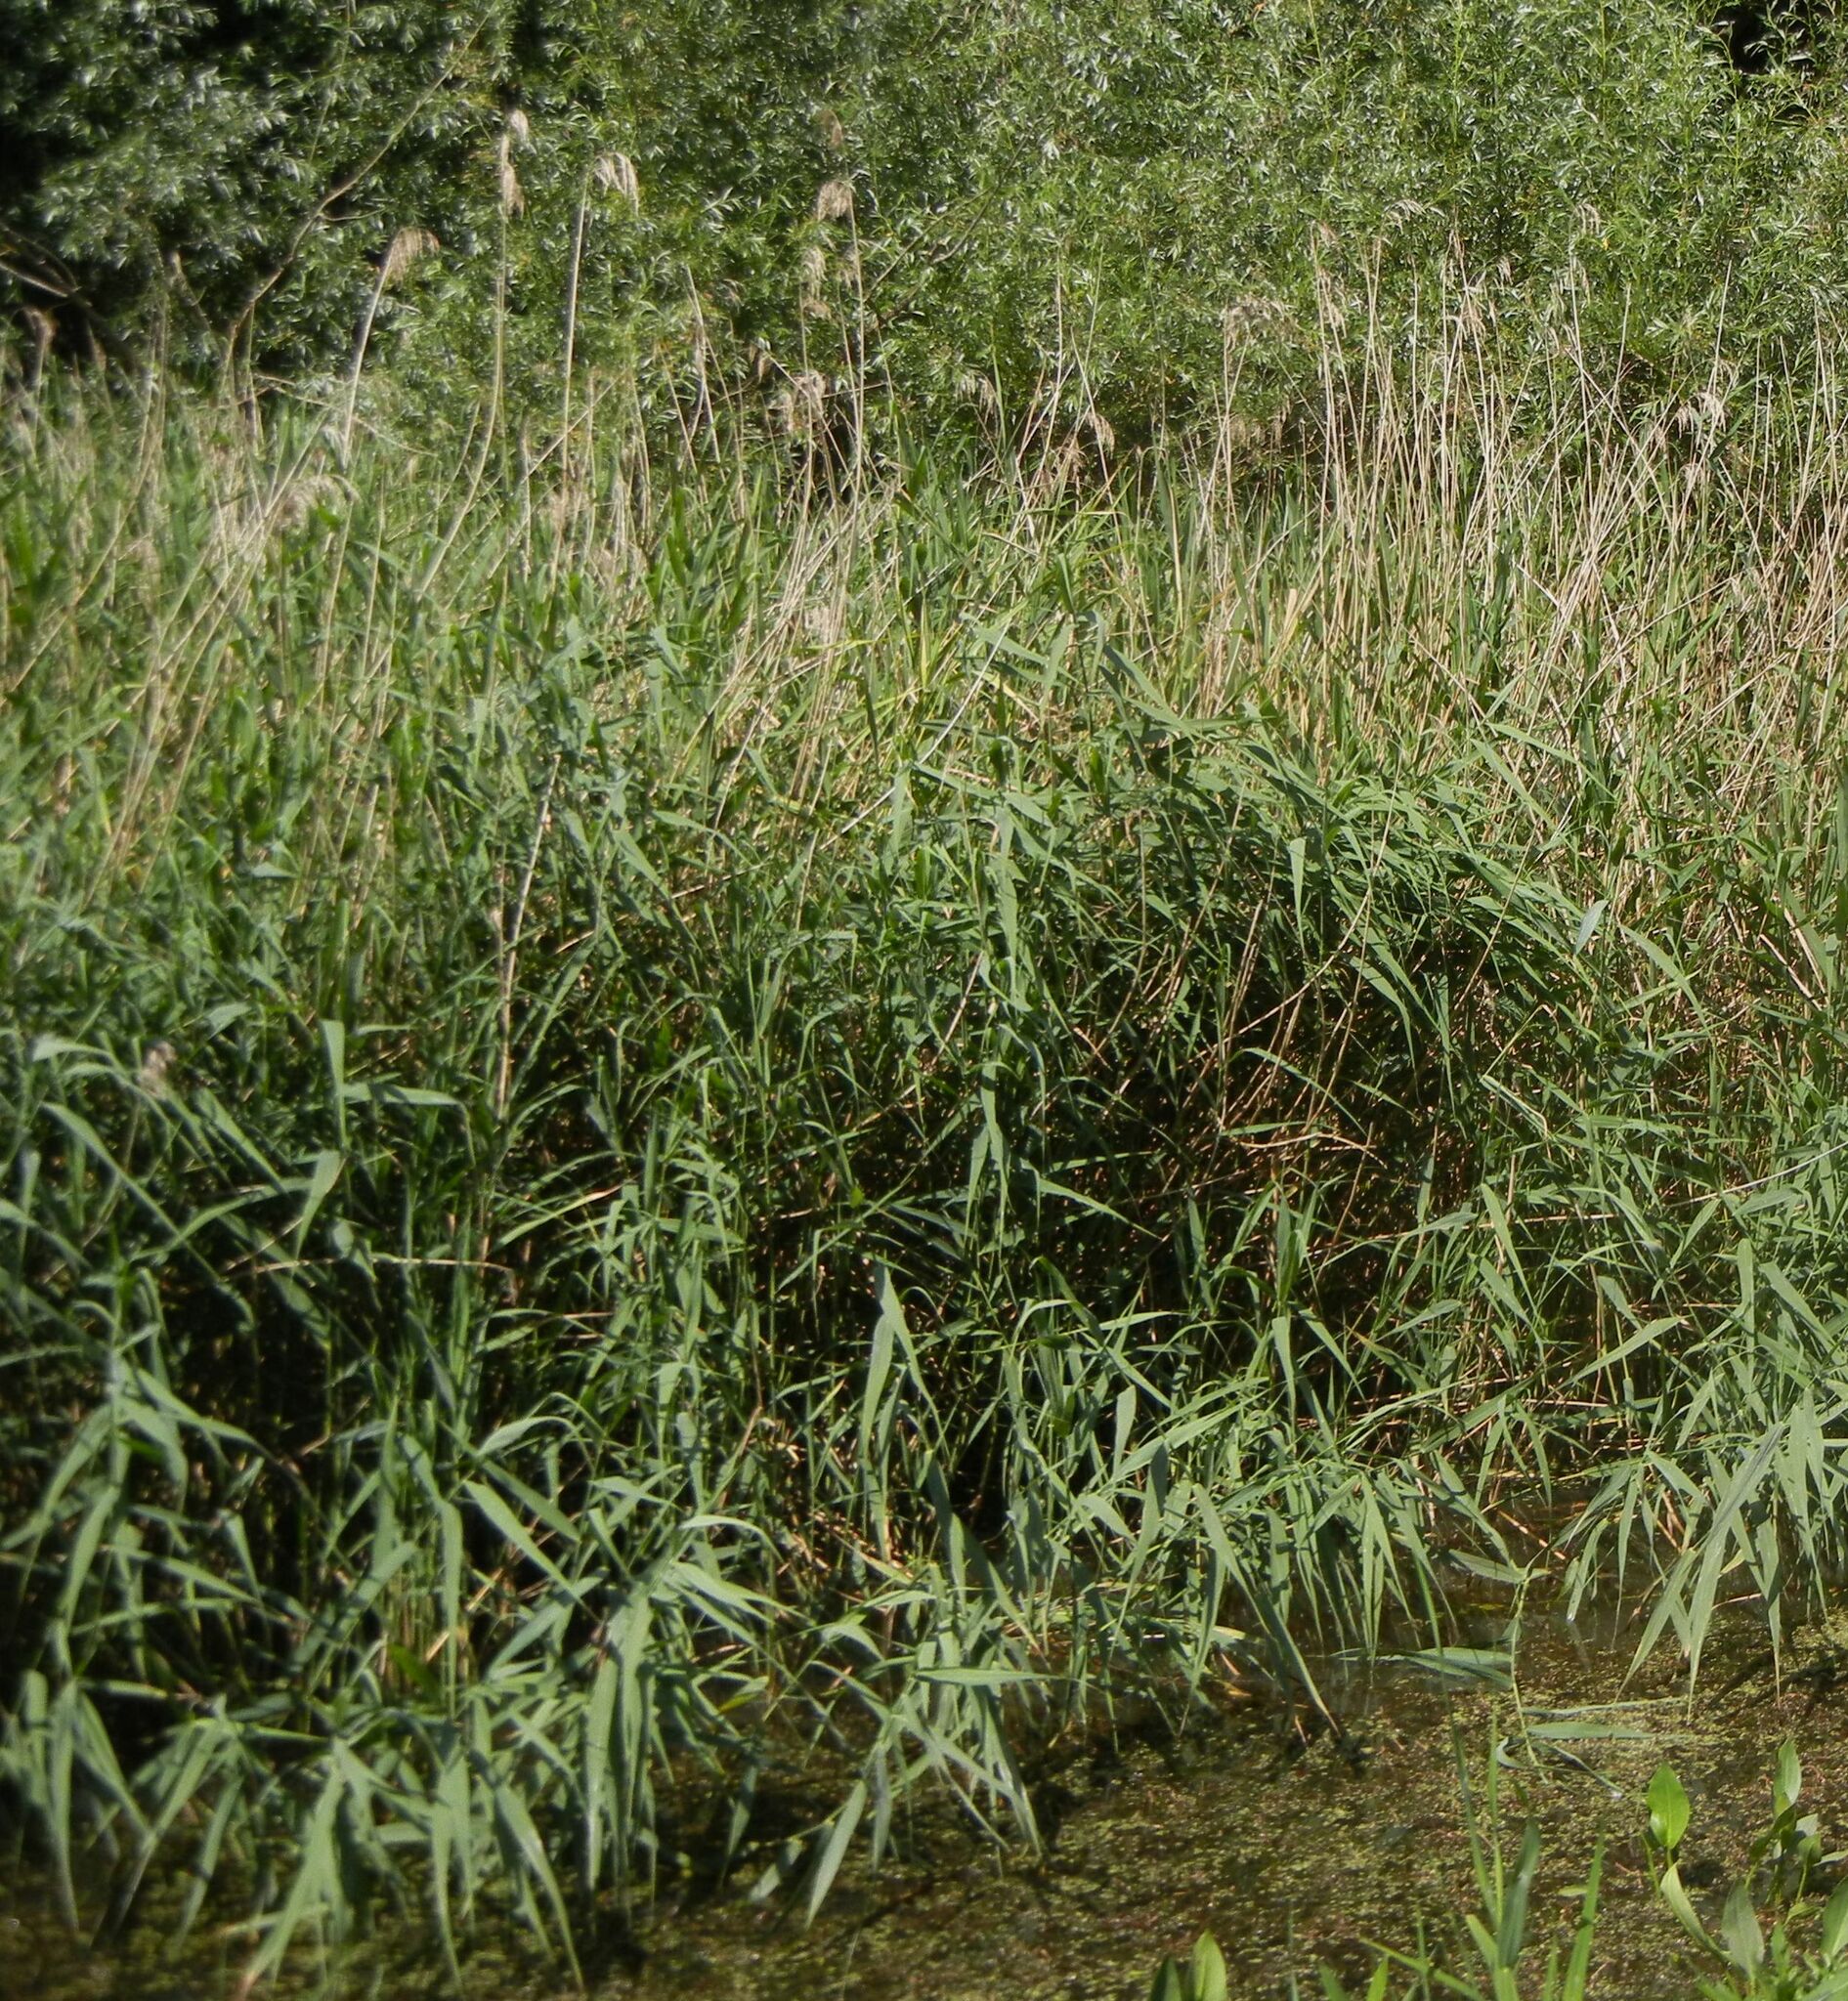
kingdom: Plantae
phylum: Tracheophyta
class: Liliopsida
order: Poales
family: Poaceae
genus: Phragmites
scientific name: Phragmites australis
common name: Common reed
